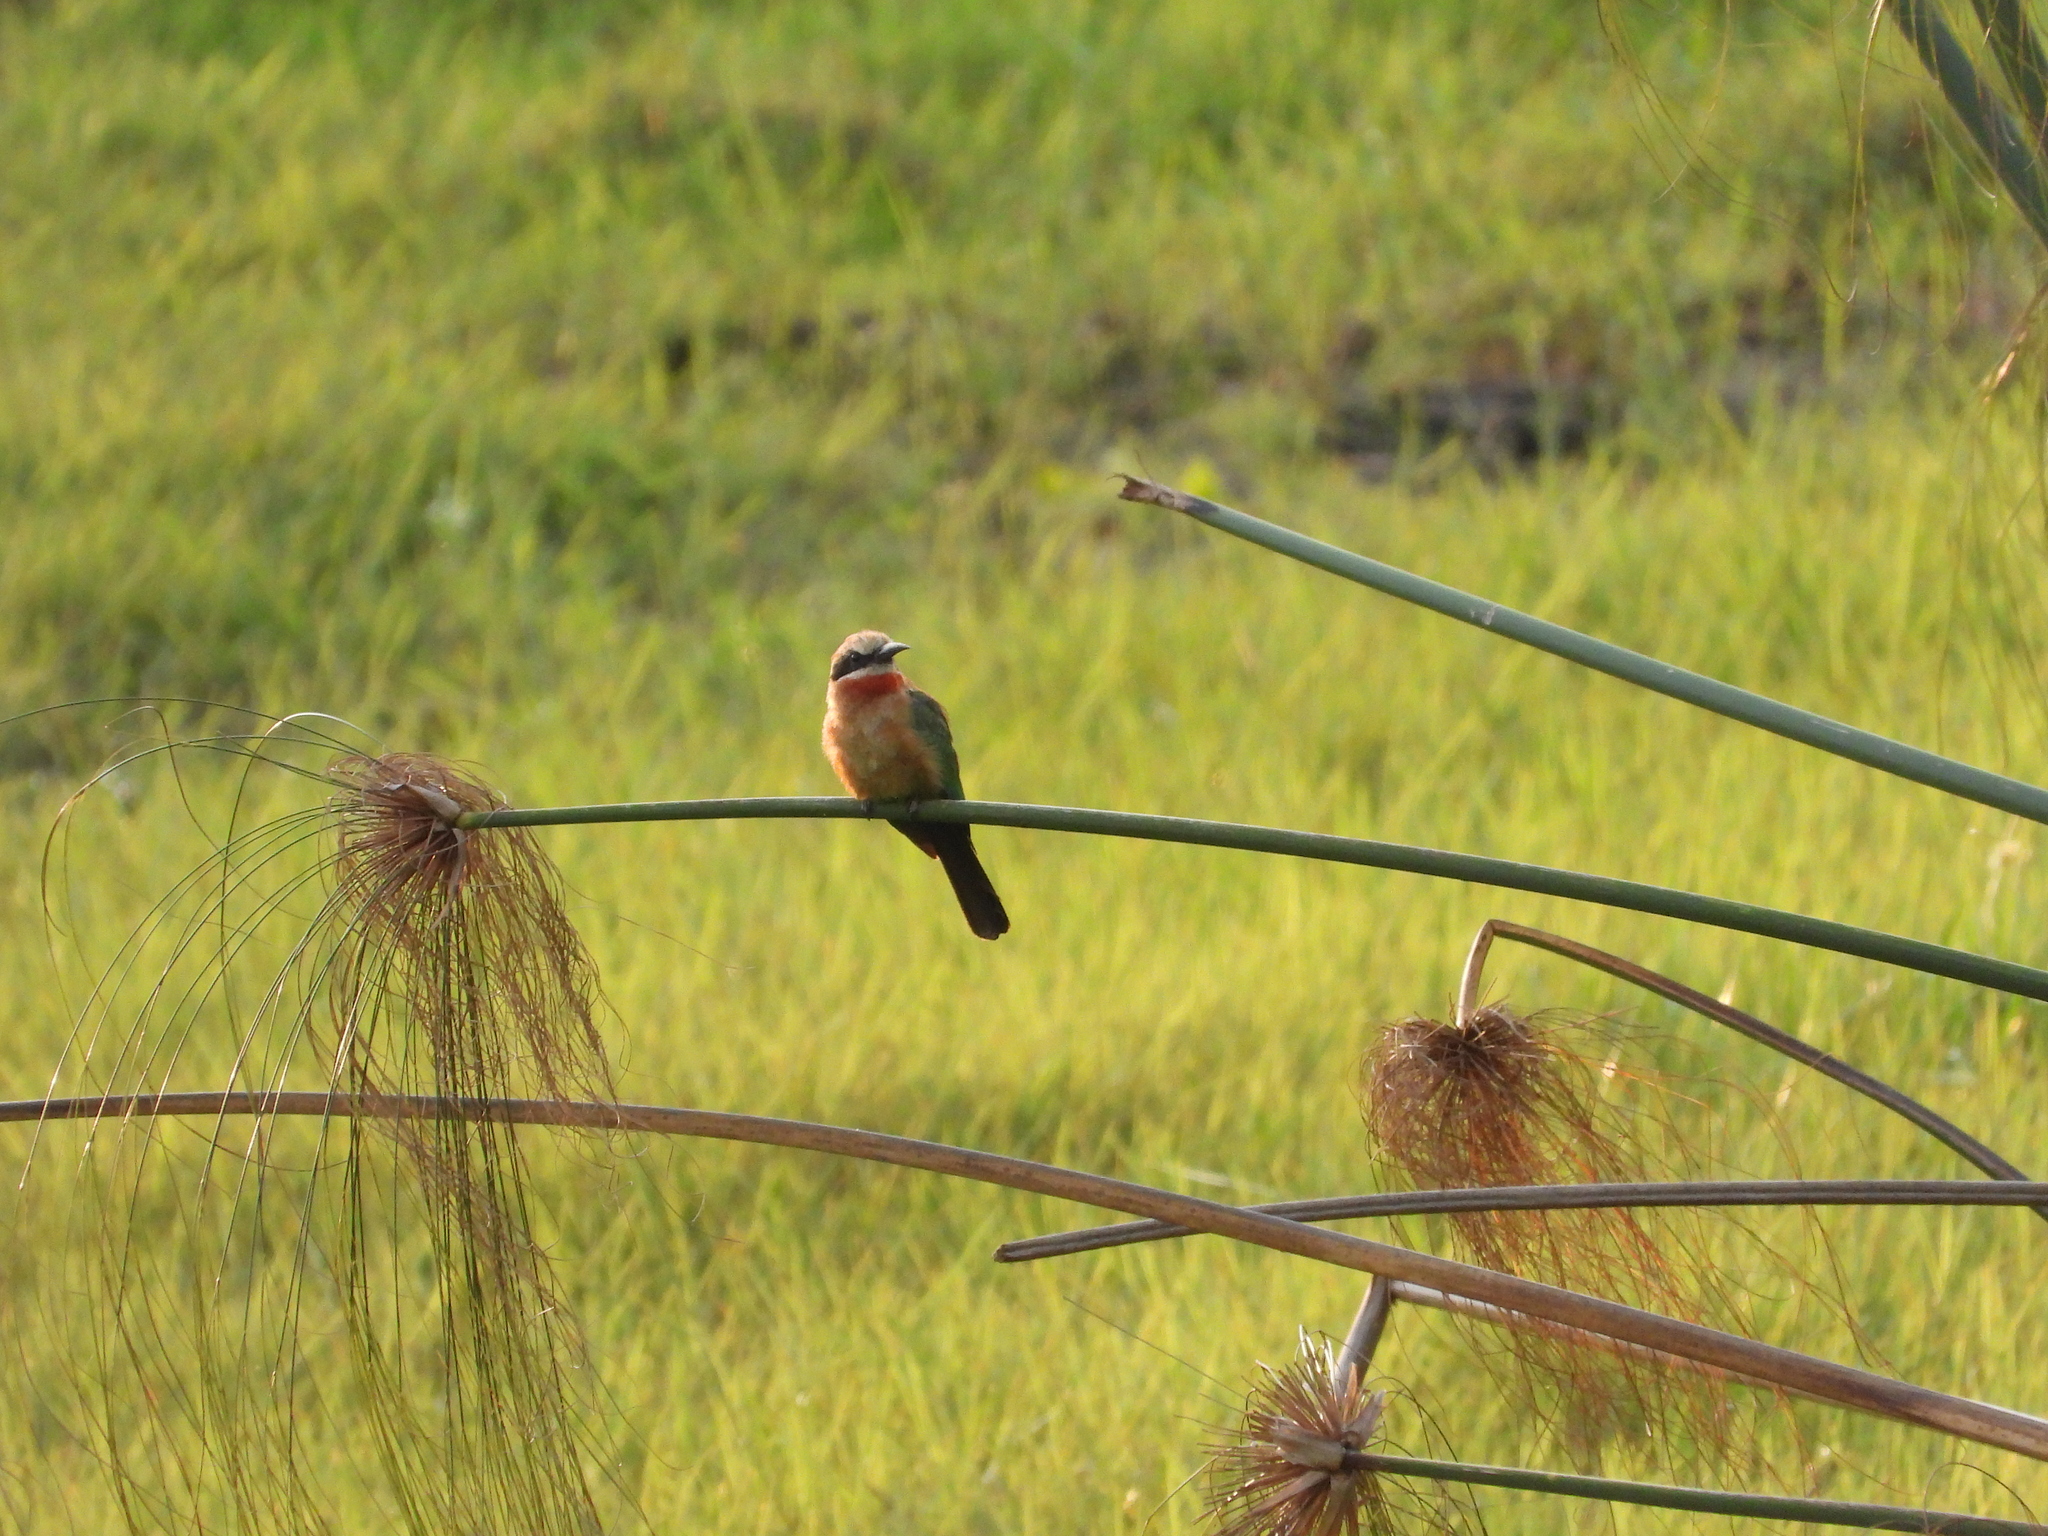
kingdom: Animalia
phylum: Chordata
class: Aves
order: Coraciiformes
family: Meropidae
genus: Merops
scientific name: Merops bullockoides
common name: White-fronted bee-eater
